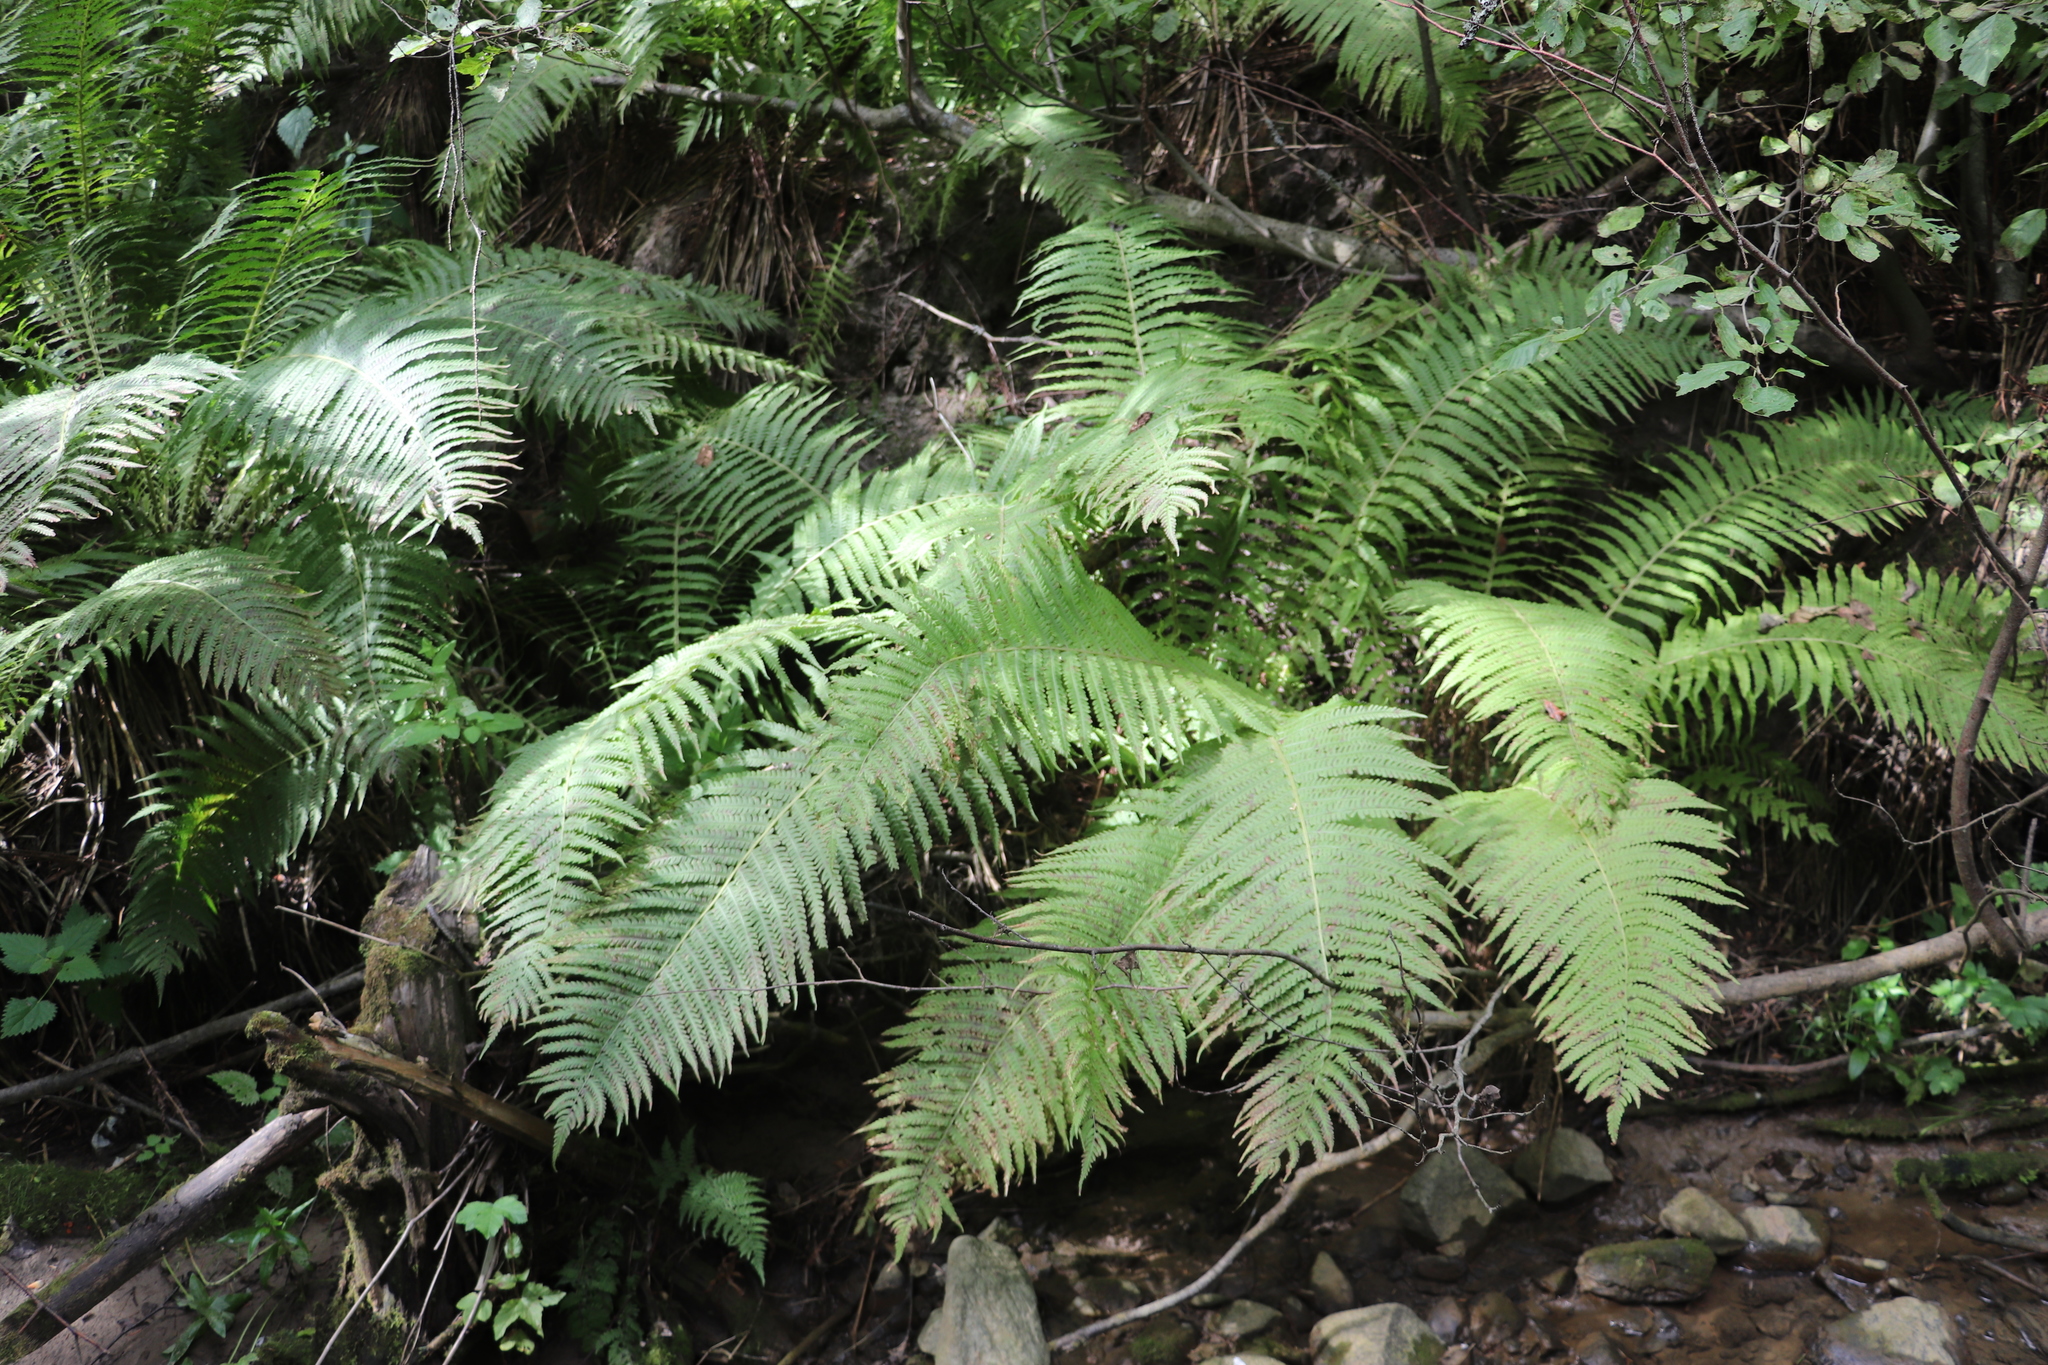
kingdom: Plantae
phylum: Tracheophyta
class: Polypodiopsida
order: Polypodiales
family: Onocleaceae
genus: Matteuccia
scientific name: Matteuccia struthiopteris
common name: Ostrich fern
